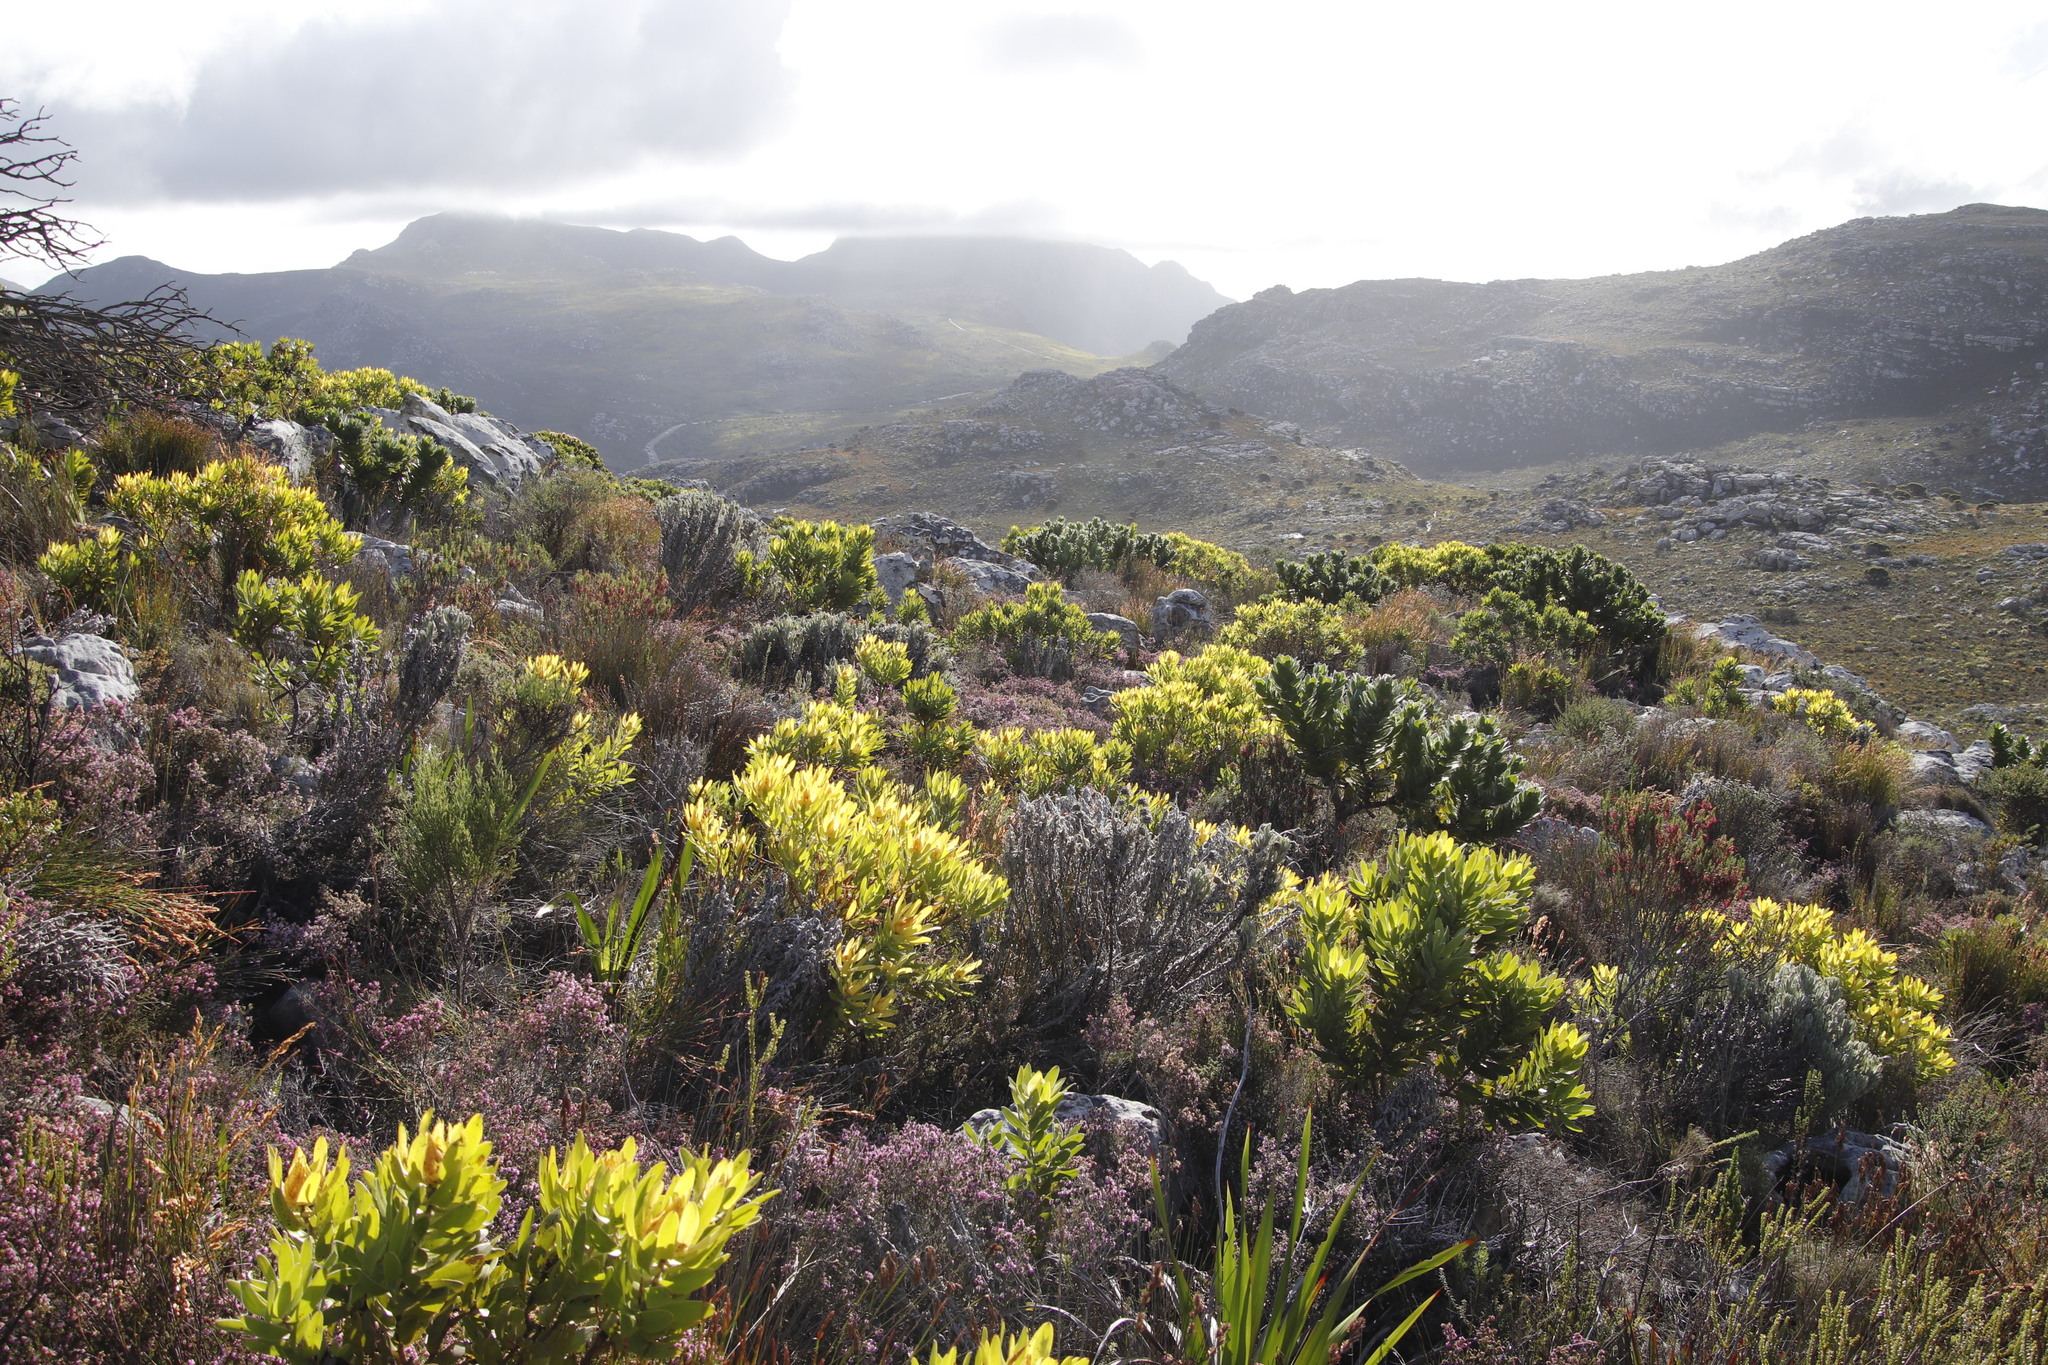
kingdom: Plantae
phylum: Tracheophyta
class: Magnoliopsida
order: Proteales
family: Proteaceae
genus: Leucadendron
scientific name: Leucadendron laureolum
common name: Golden sunshinebush
